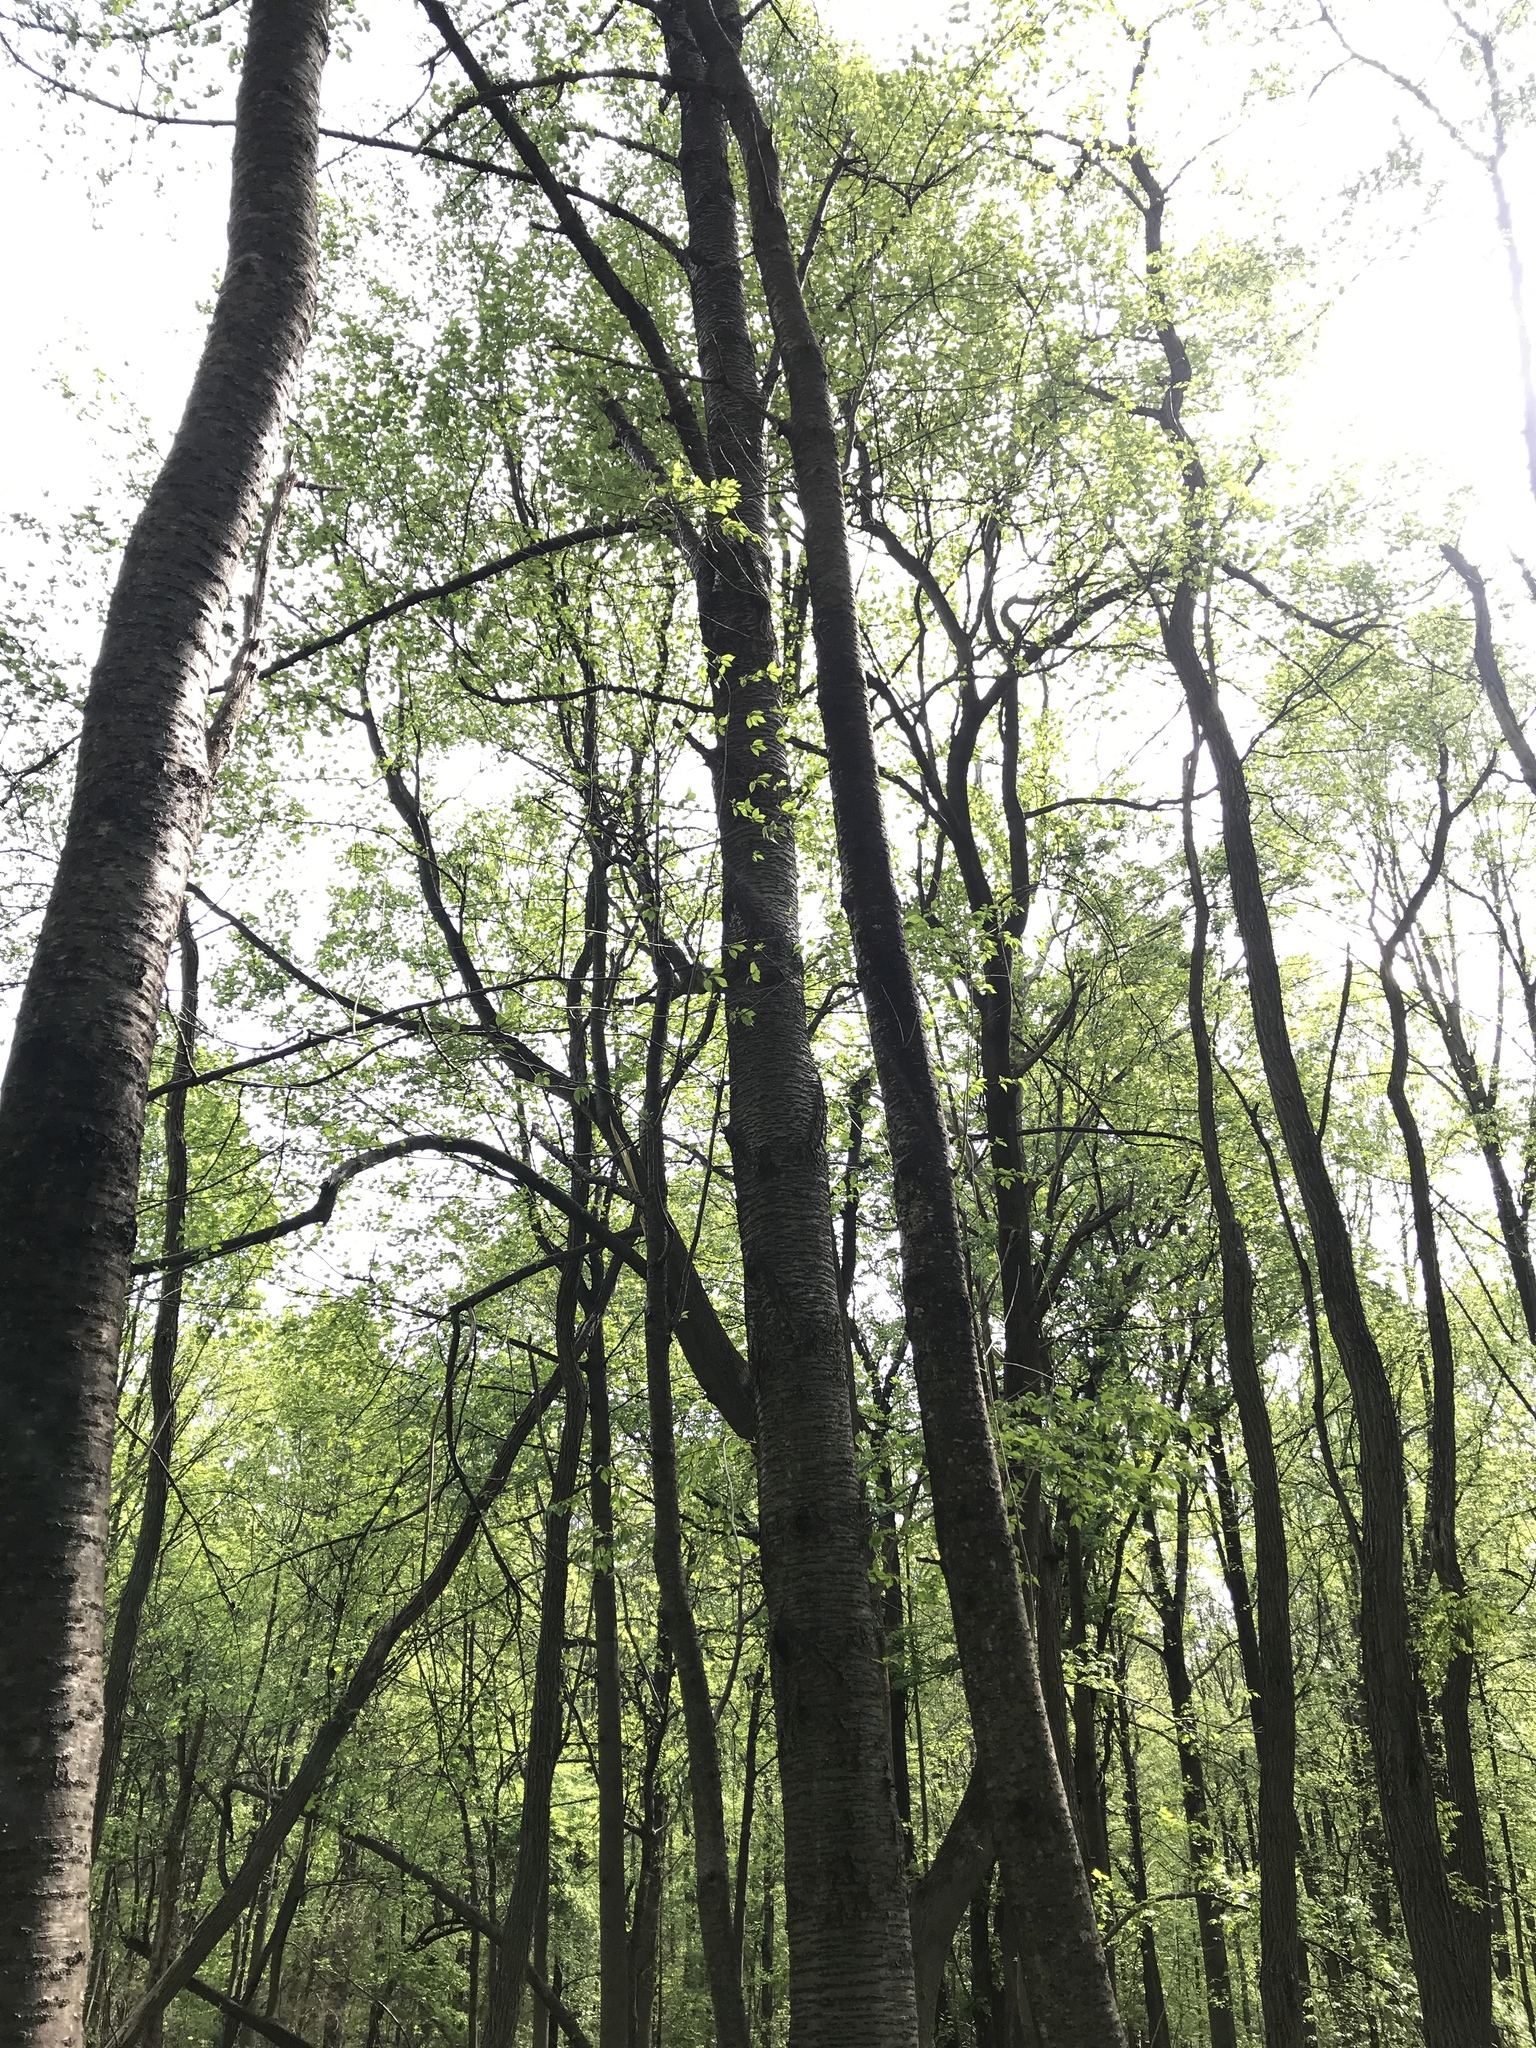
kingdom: Plantae
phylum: Tracheophyta
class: Magnoliopsida
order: Rosales
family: Rosaceae
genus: Prunus
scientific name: Prunus avium
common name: Sweet cherry
